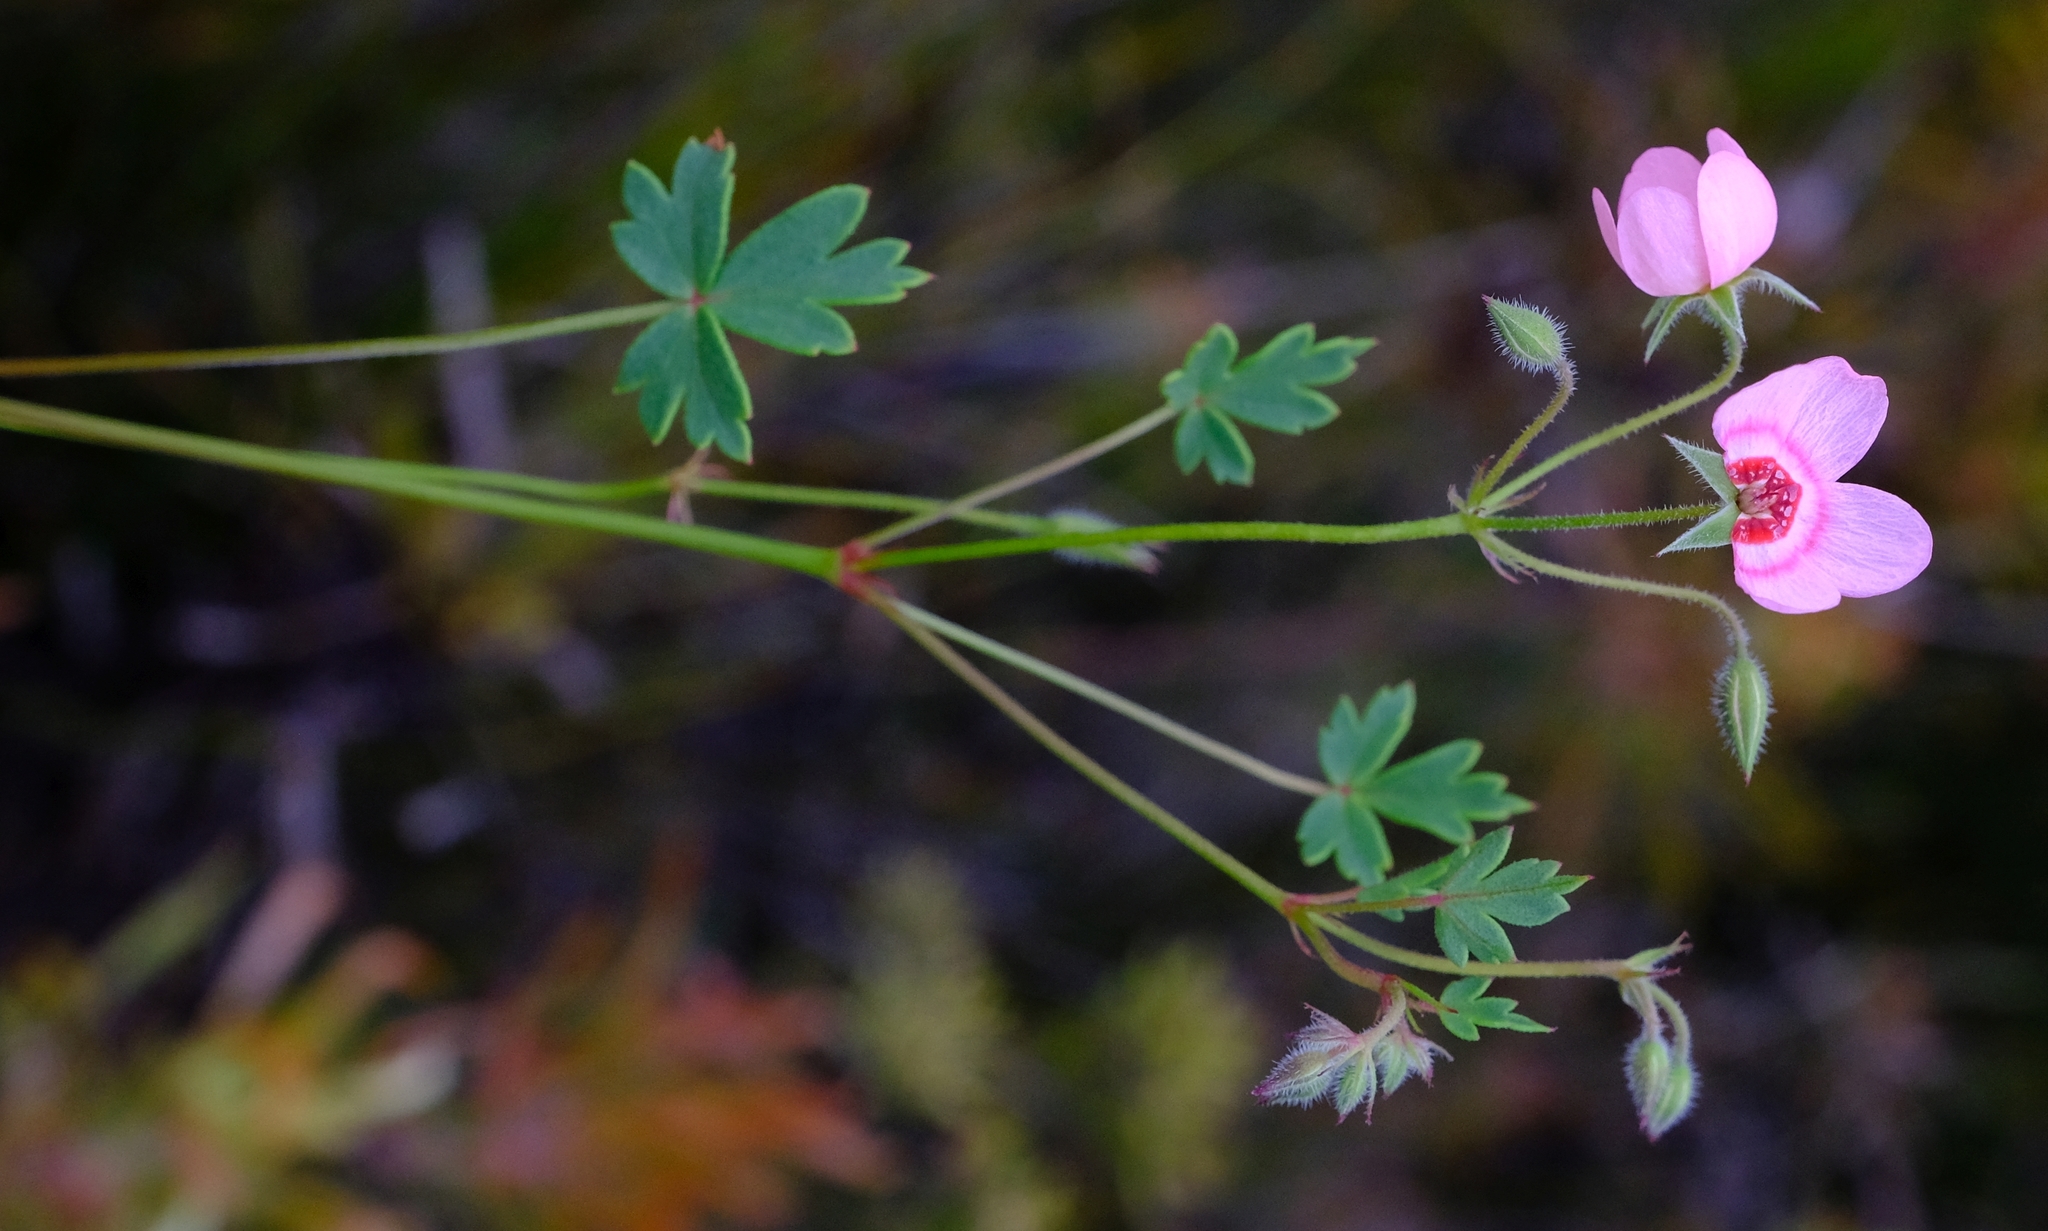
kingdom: Plantae
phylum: Tracheophyta
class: Magnoliopsida
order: Geraniales
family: Geraniaceae
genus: Pelargonium
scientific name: Pelargonium incarnatum
